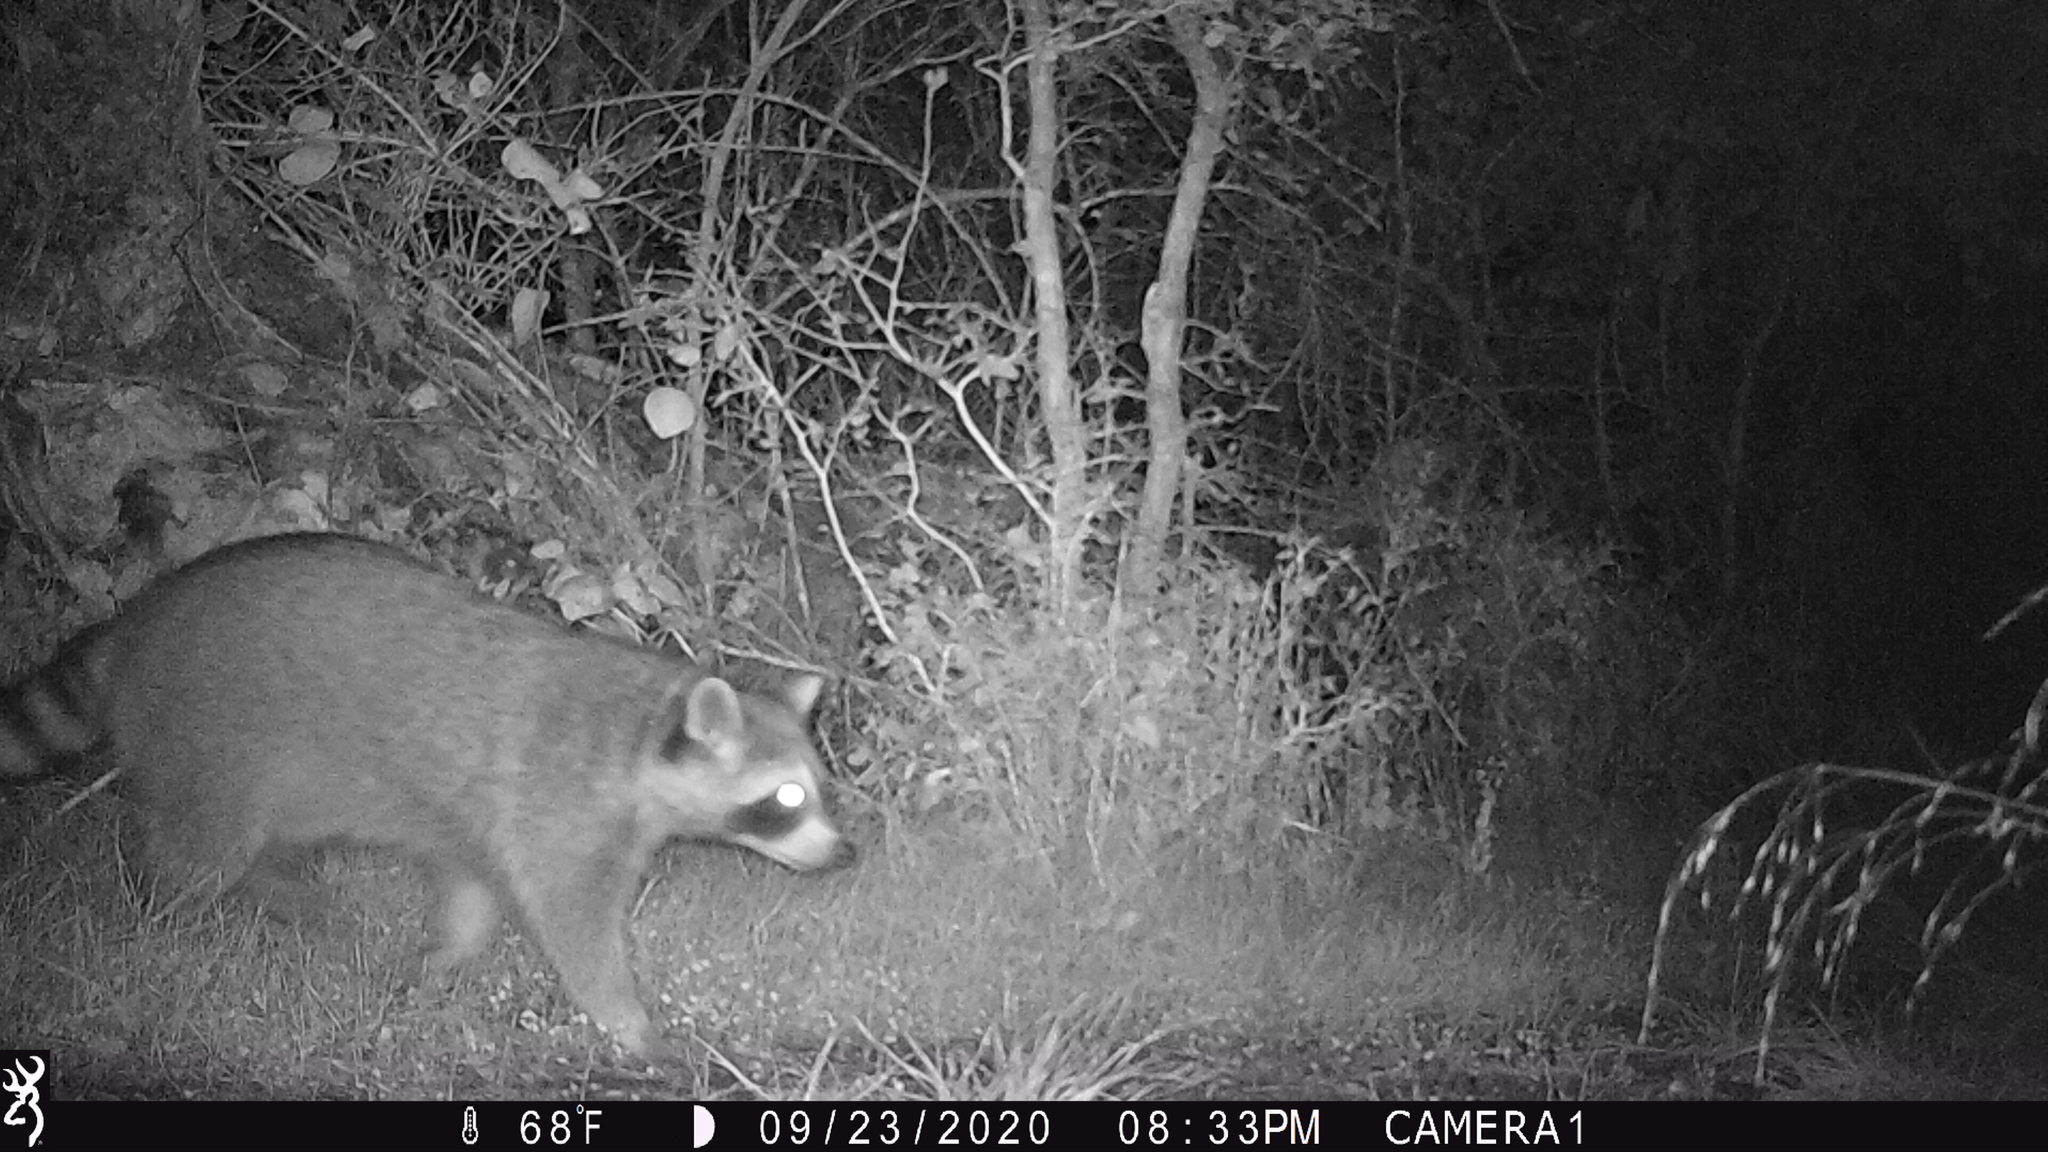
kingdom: Animalia
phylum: Chordata
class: Mammalia
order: Carnivora
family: Procyonidae
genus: Procyon
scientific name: Procyon lotor
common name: Raccoon
